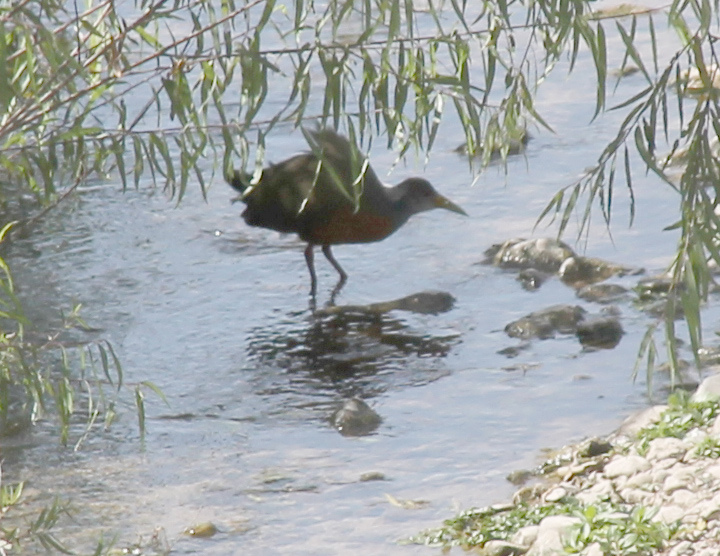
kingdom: Animalia
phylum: Chordata
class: Aves
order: Gruiformes
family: Rallidae
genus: Aramides
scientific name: Aramides cajanea
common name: Gray-necked wood-rail
